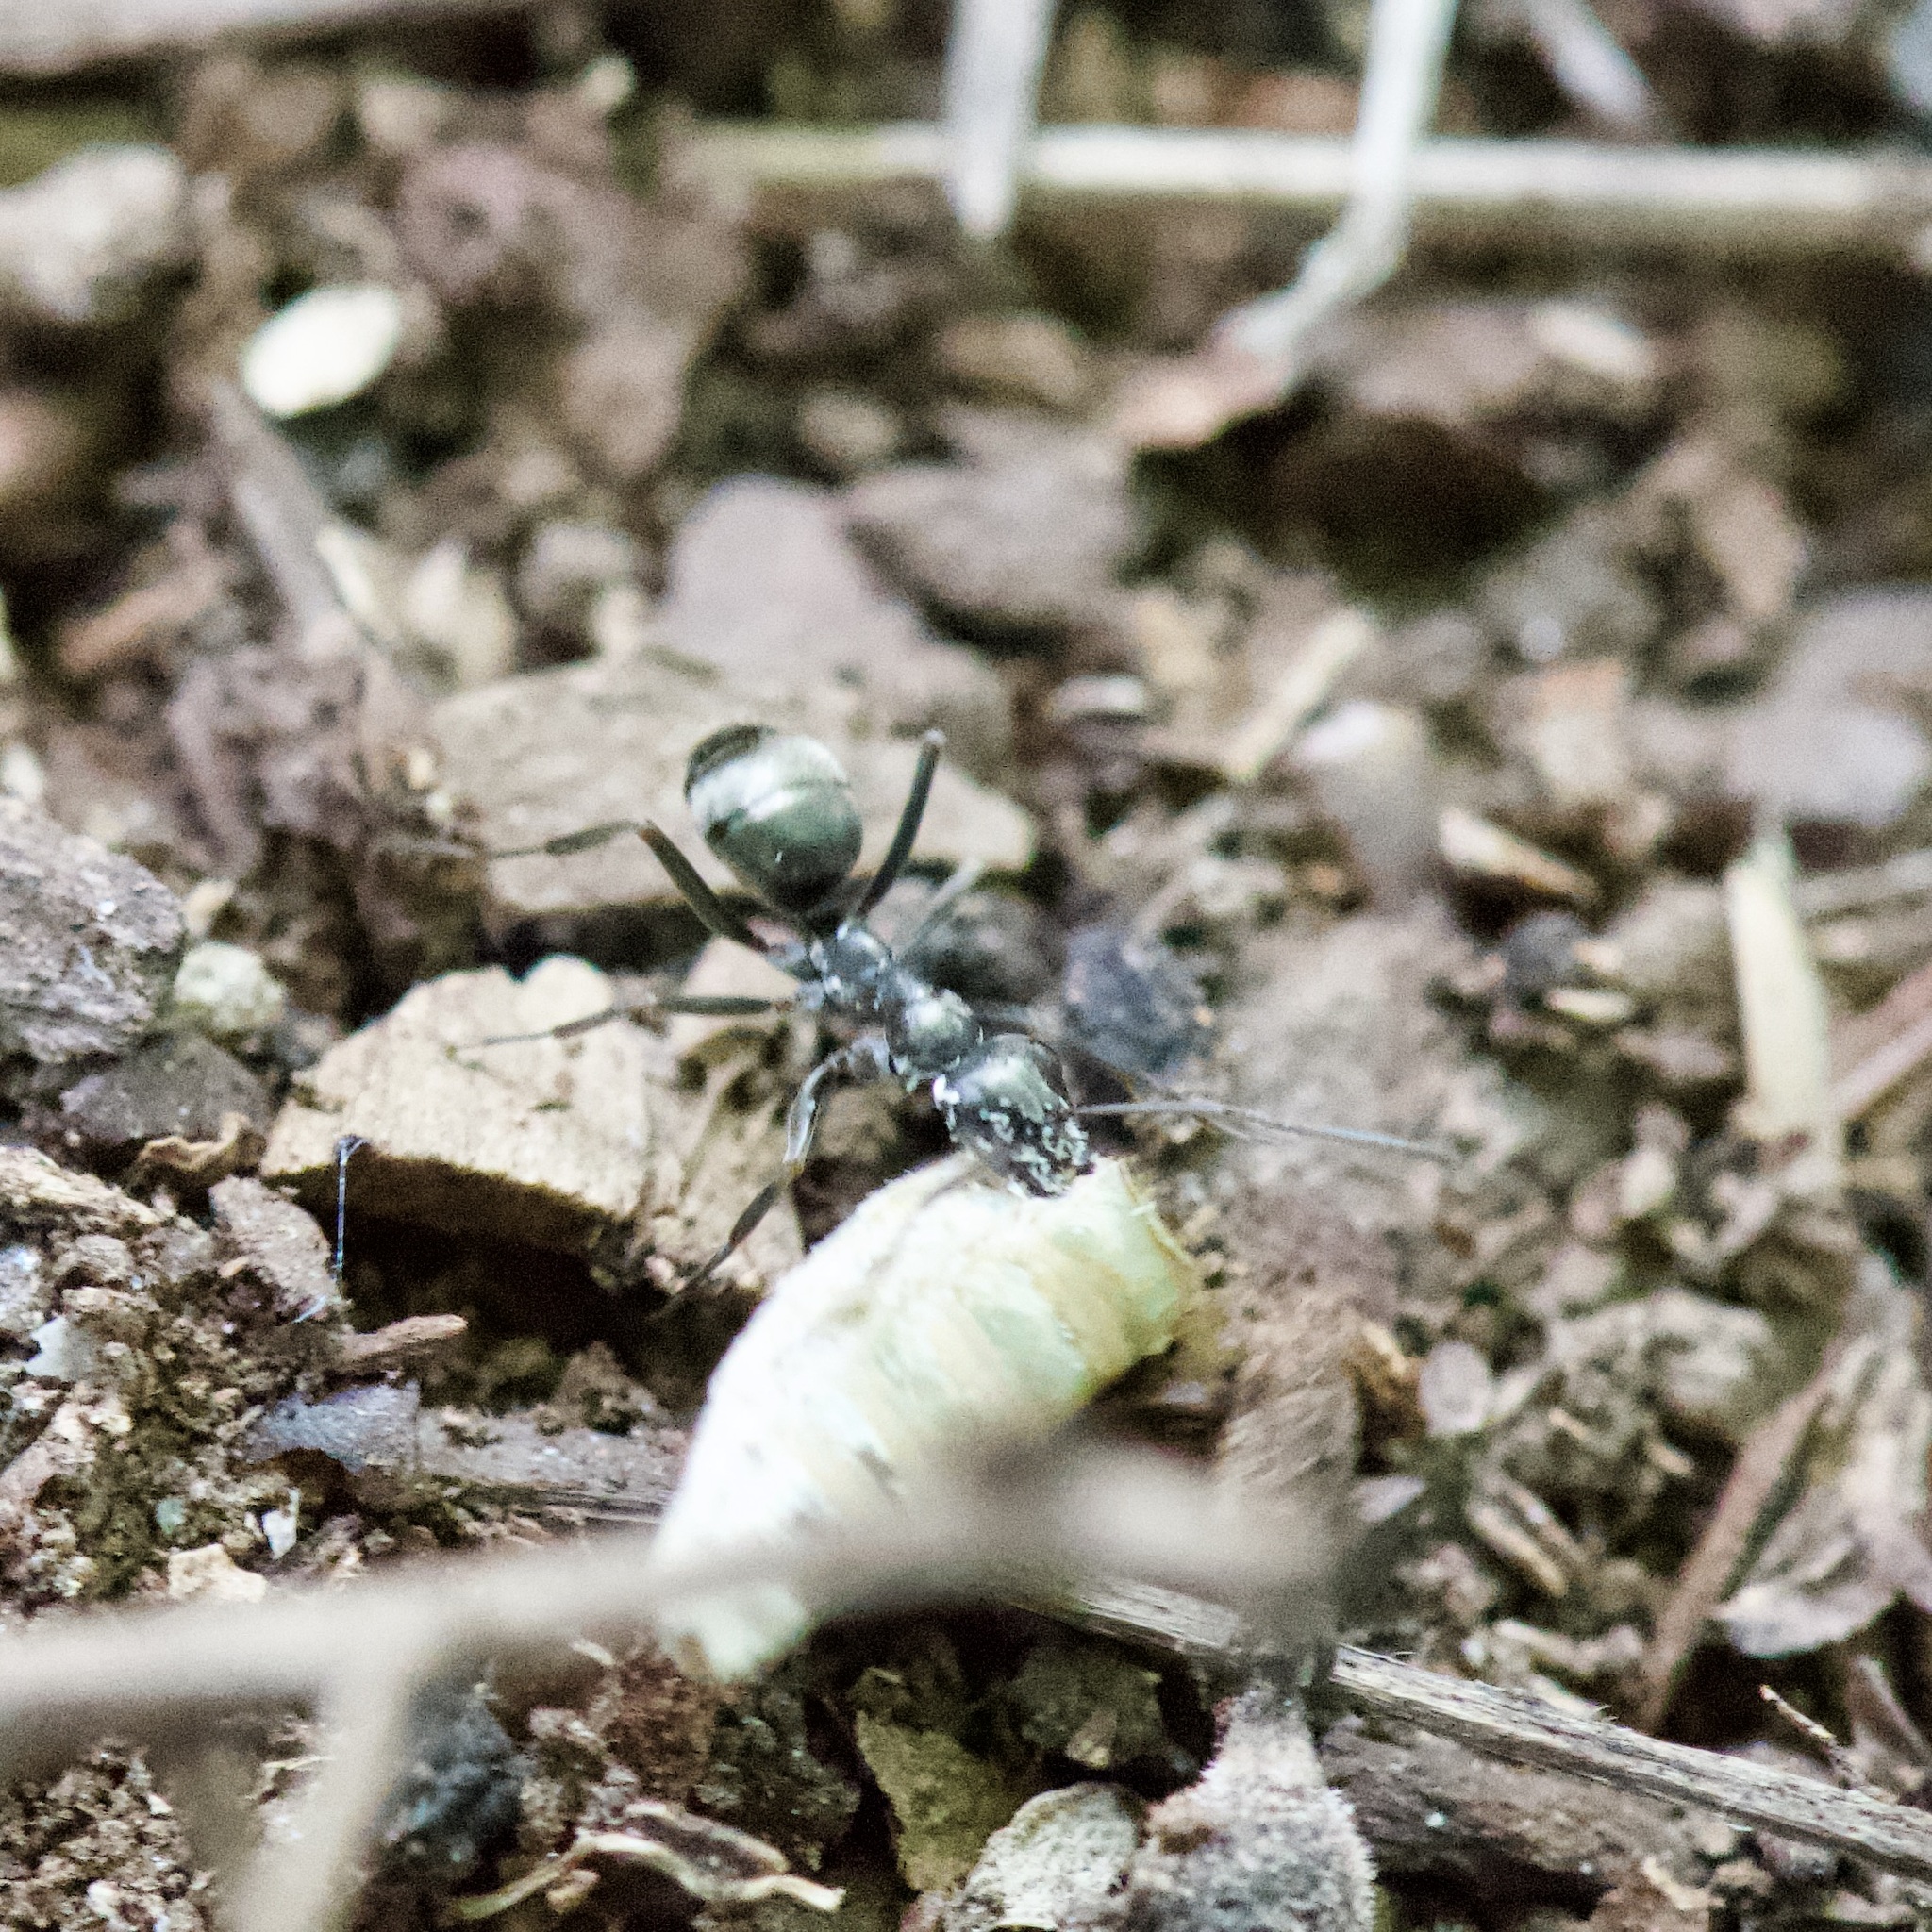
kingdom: Animalia
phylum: Arthropoda
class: Insecta
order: Hymenoptera
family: Formicidae
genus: Formica
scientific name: Formica
